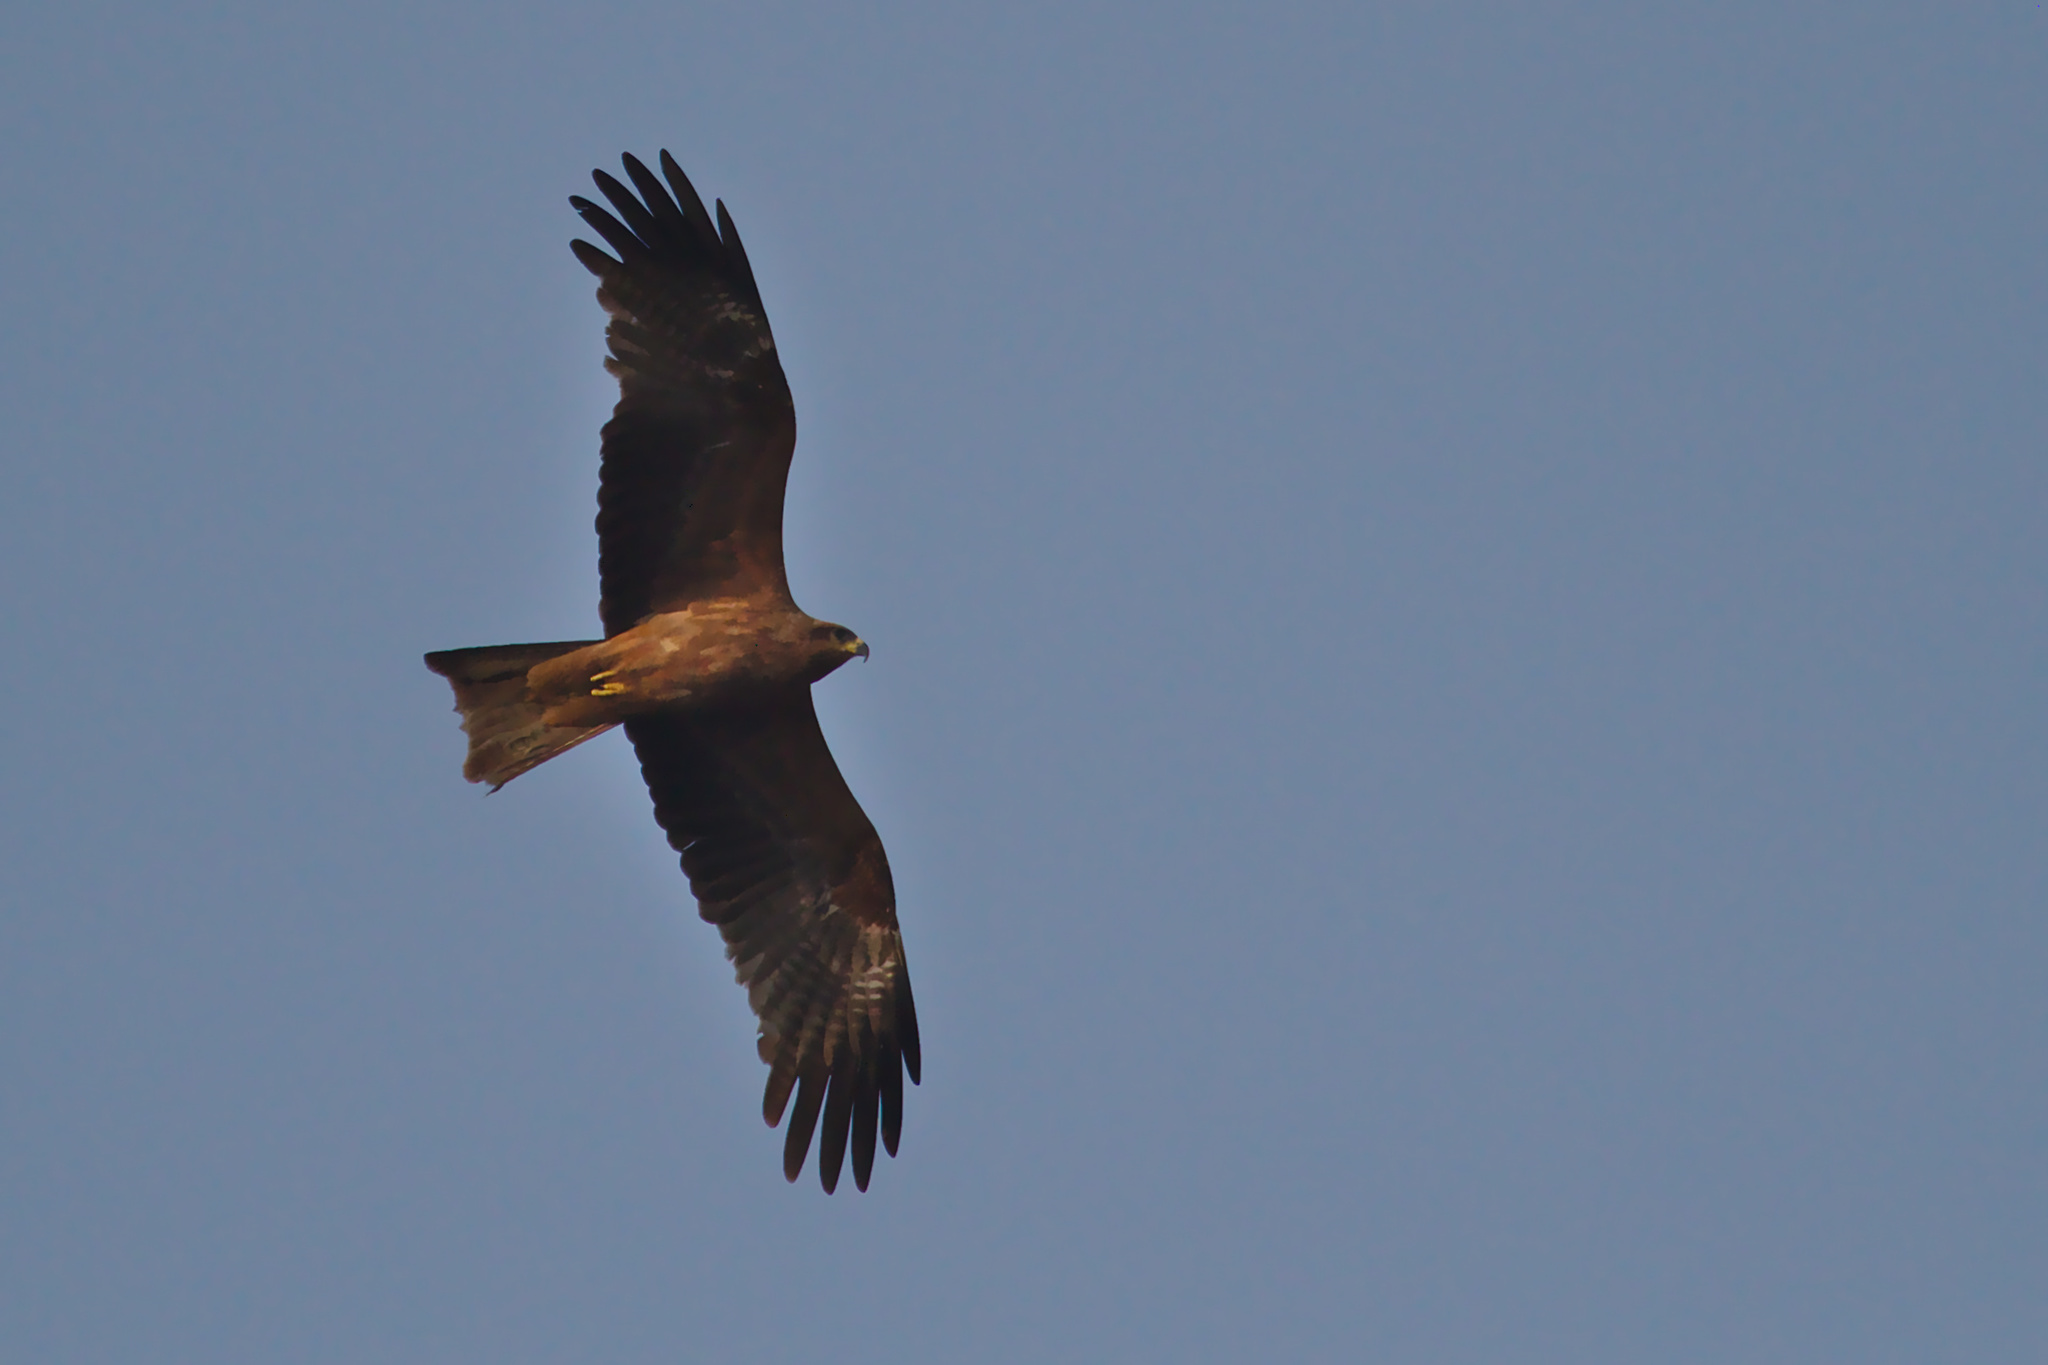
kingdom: Animalia
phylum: Chordata
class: Aves
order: Accipitriformes
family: Accipitridae
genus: Milvus
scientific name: Milvus migrans
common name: Black kite
